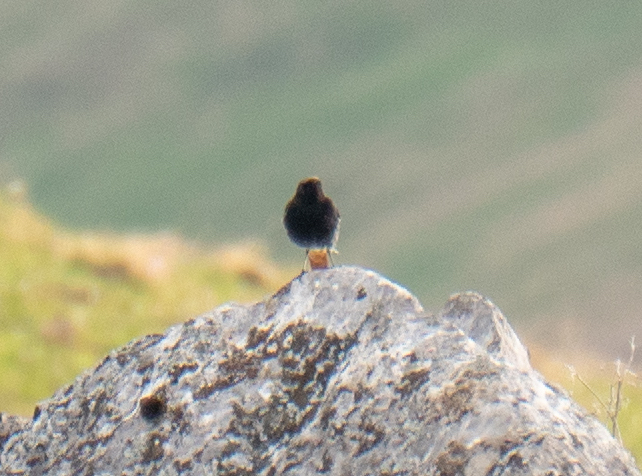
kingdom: Animalia
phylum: Chordata
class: Aves
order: Passeriformes
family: Muscicapidae
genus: Phoenicurus
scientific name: Phoenicurus ochruros
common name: Black redstart
